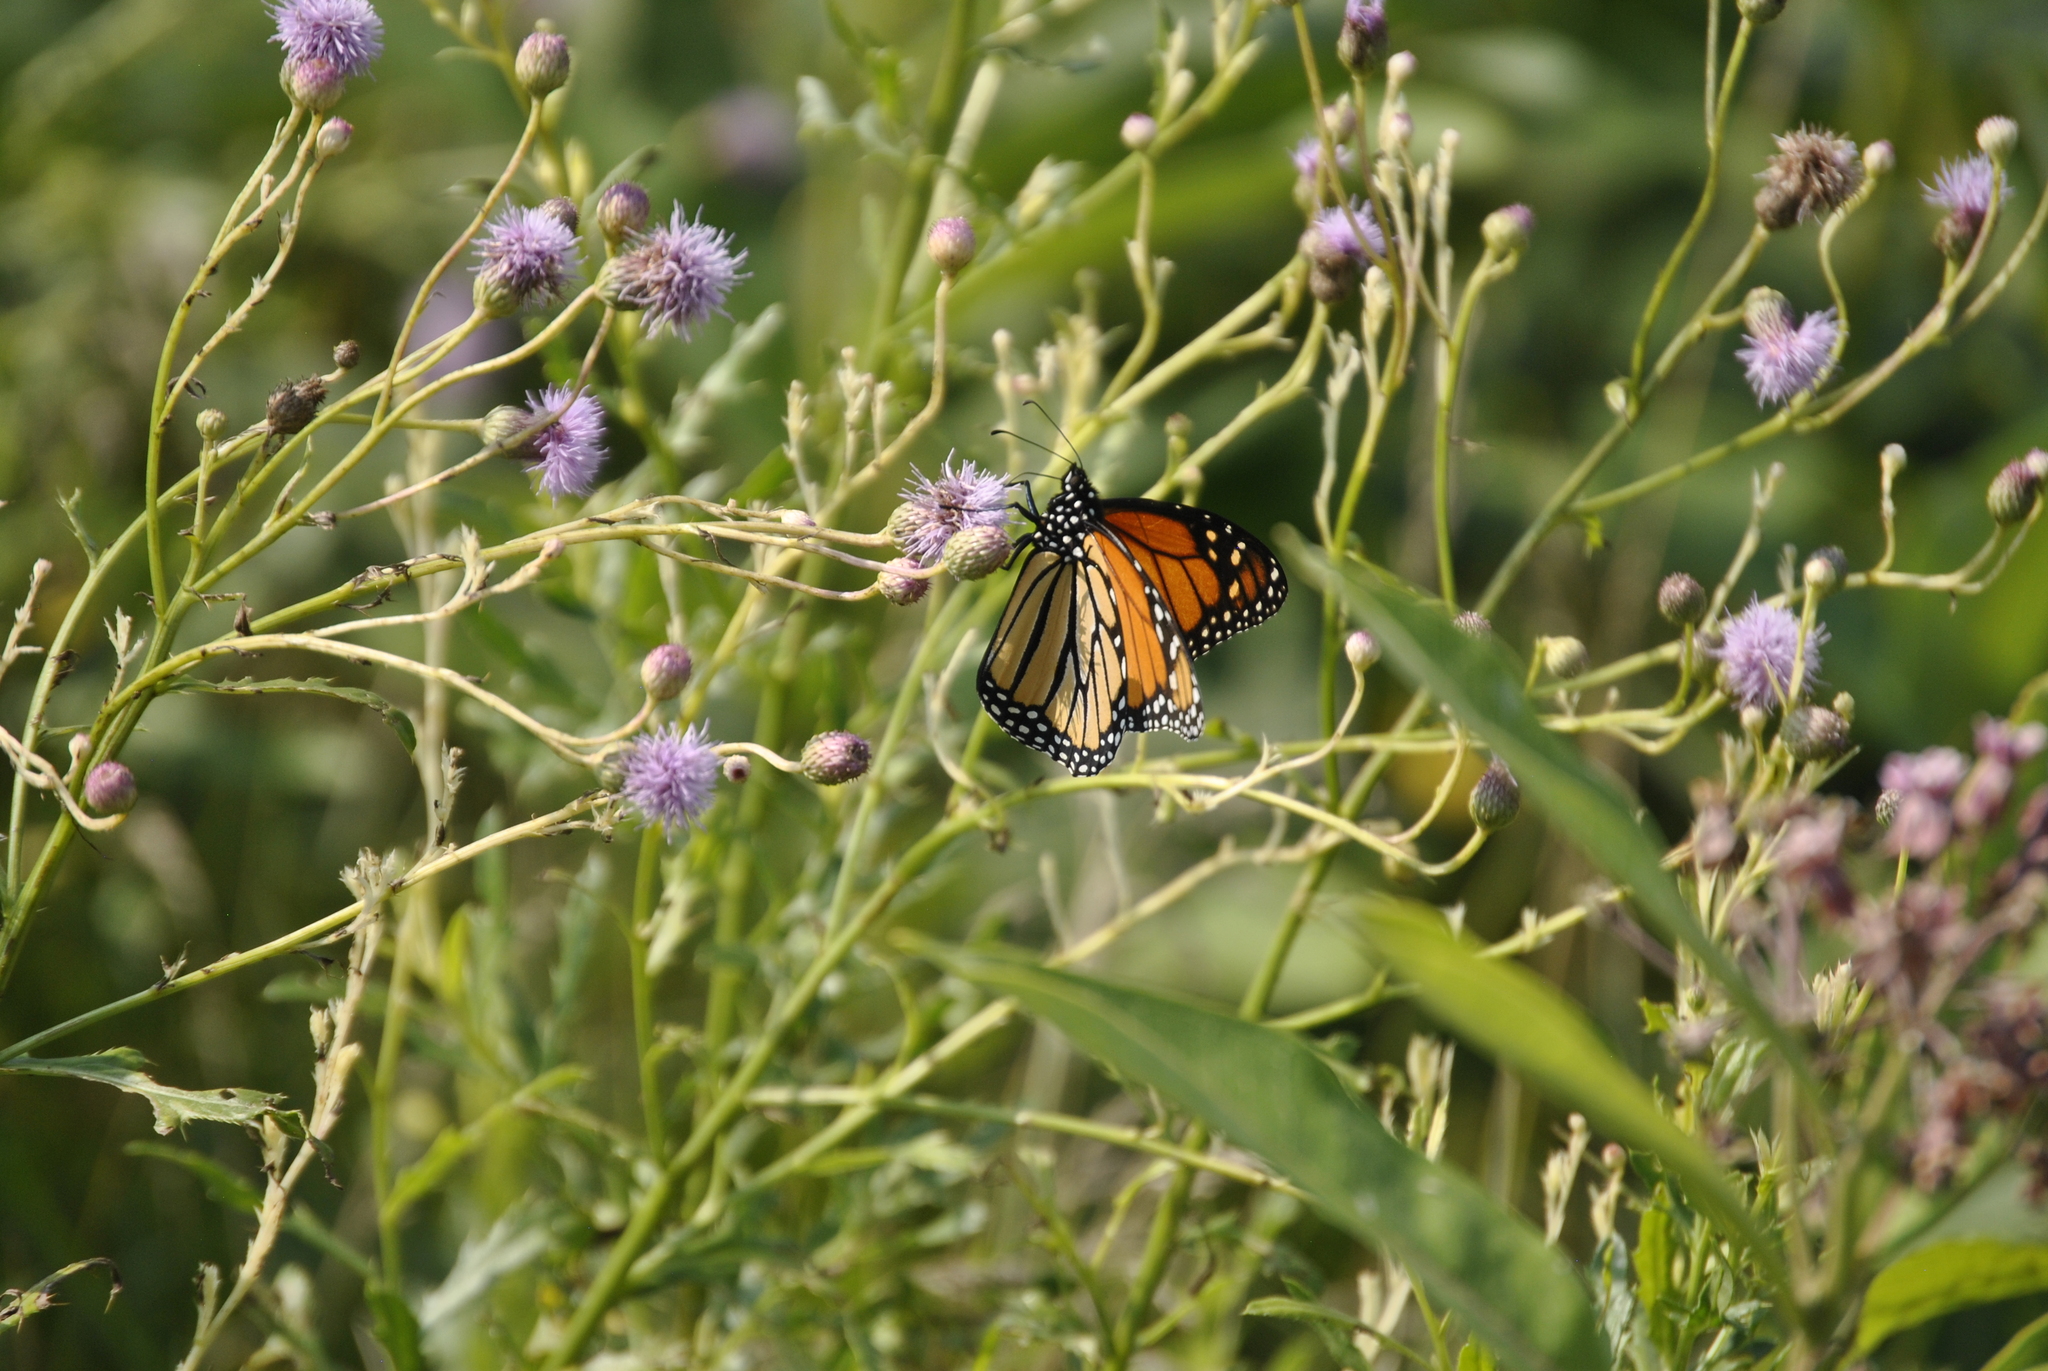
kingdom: Plantae
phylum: Tracheophyta
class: Magnoliopsida
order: Asterales
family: Asteraceae
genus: Cirsium
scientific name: Cirsium arvense
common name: Creeping thistle
